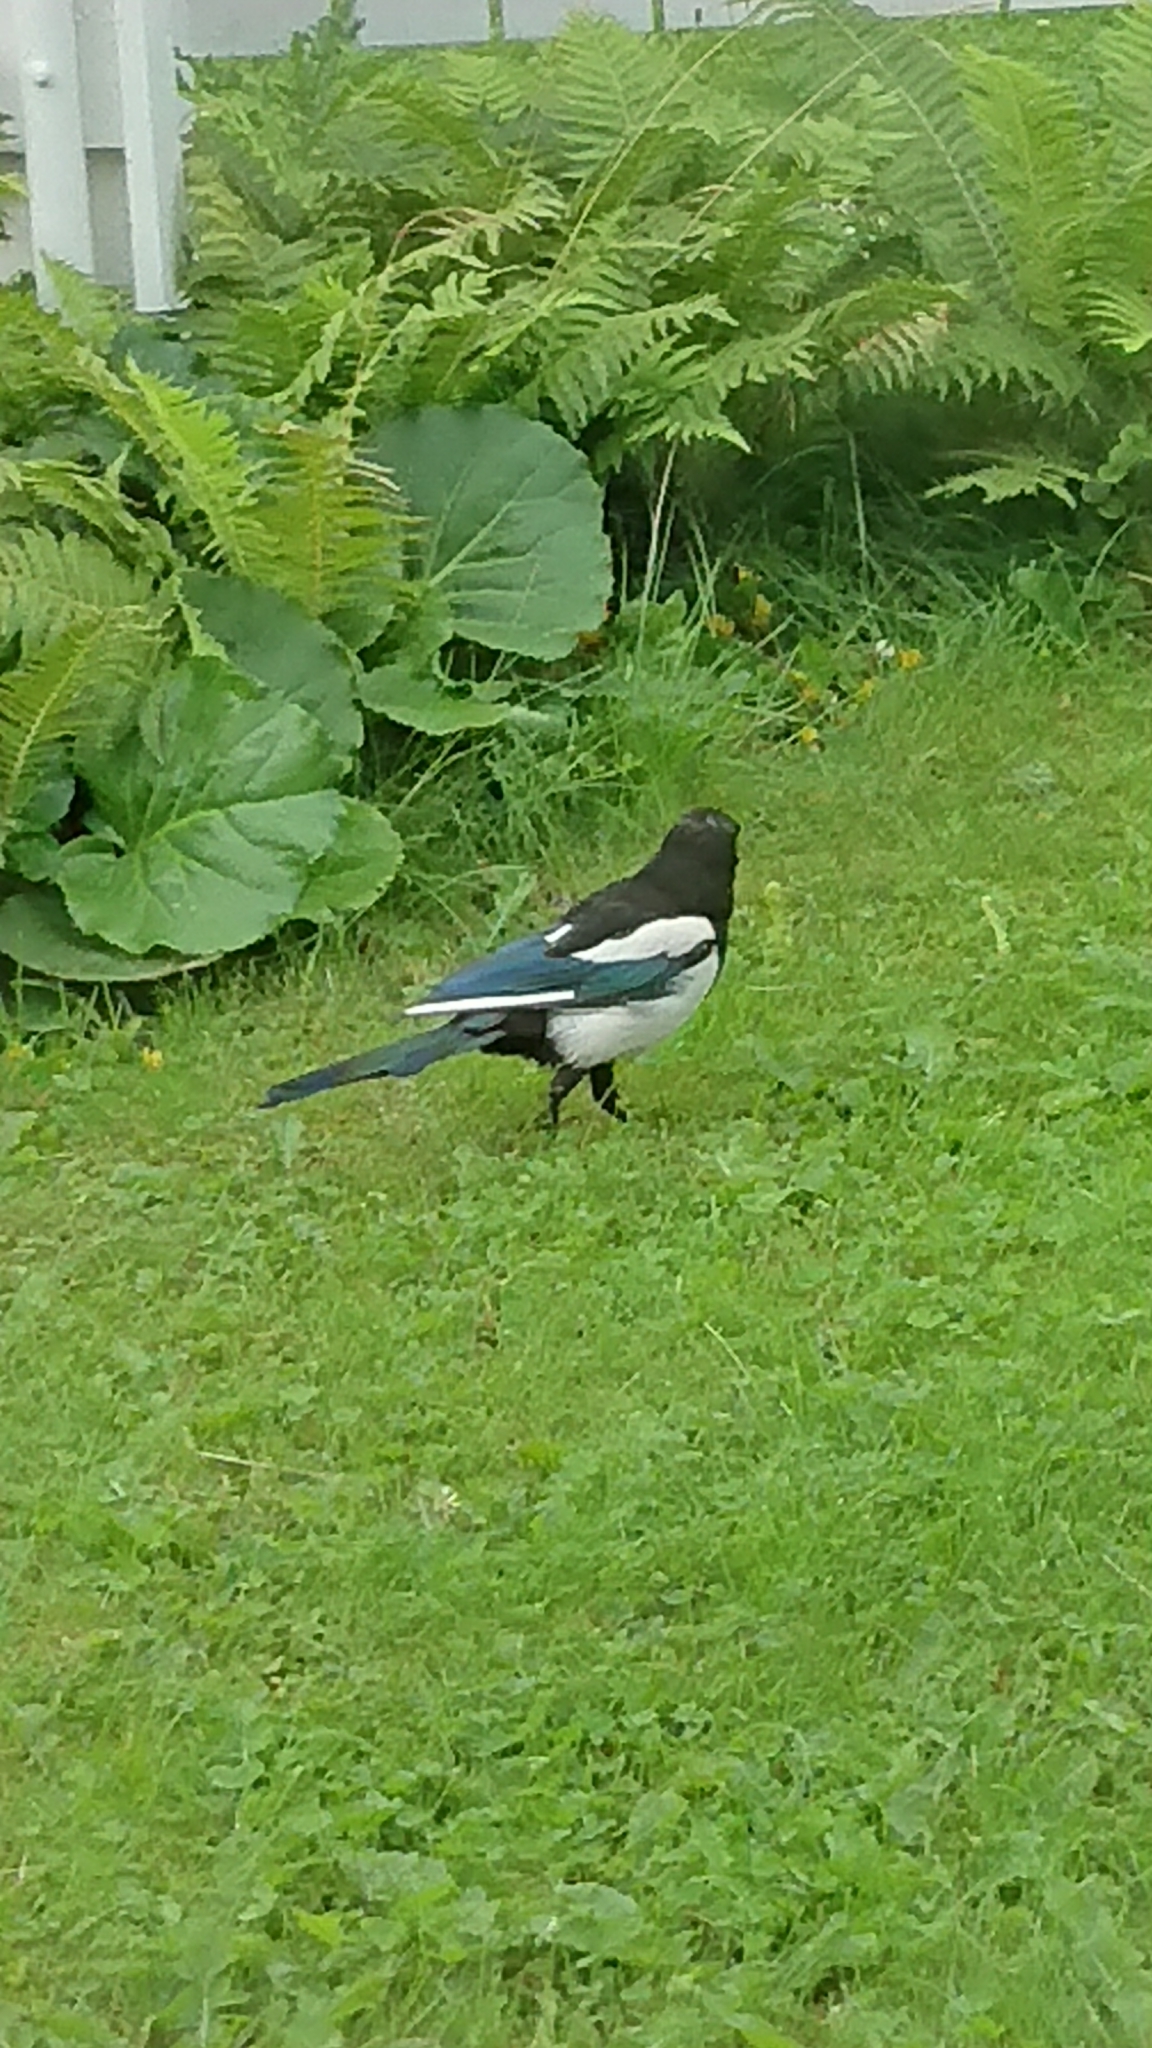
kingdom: Animalia
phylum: Chordata
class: Aves
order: Passeriformes
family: Corvidae
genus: Pica
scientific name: Pica pica
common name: Eurasian magpie
